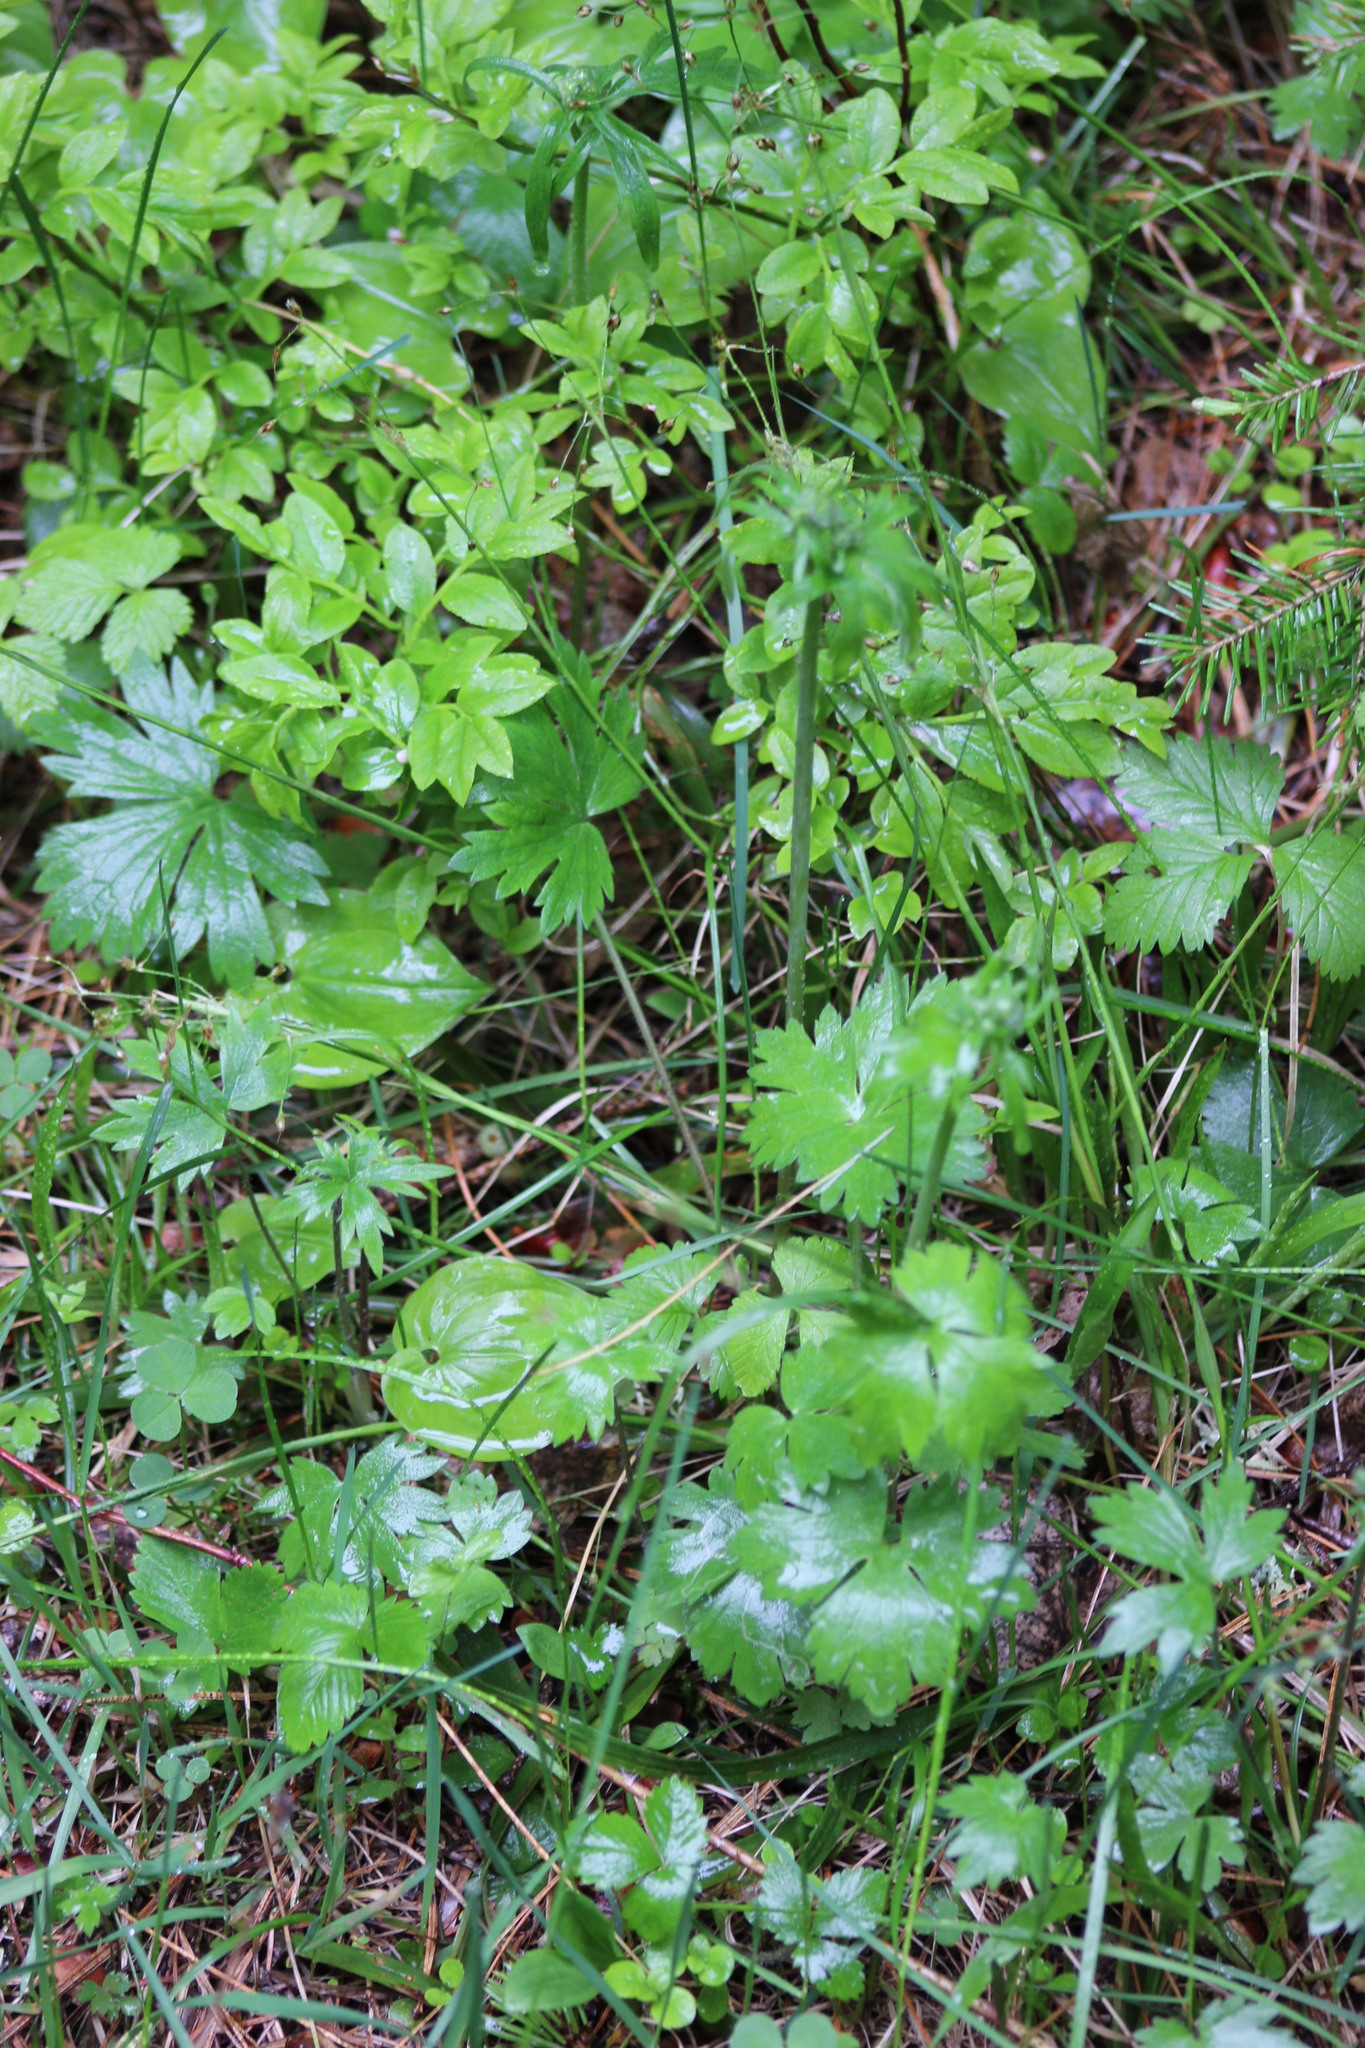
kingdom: Plantae
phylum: Tracheophyta
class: Magnoliopsida
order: Ranunculales
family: Ranunculaceae
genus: Ranunculus
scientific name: Ranunculus propinquus
